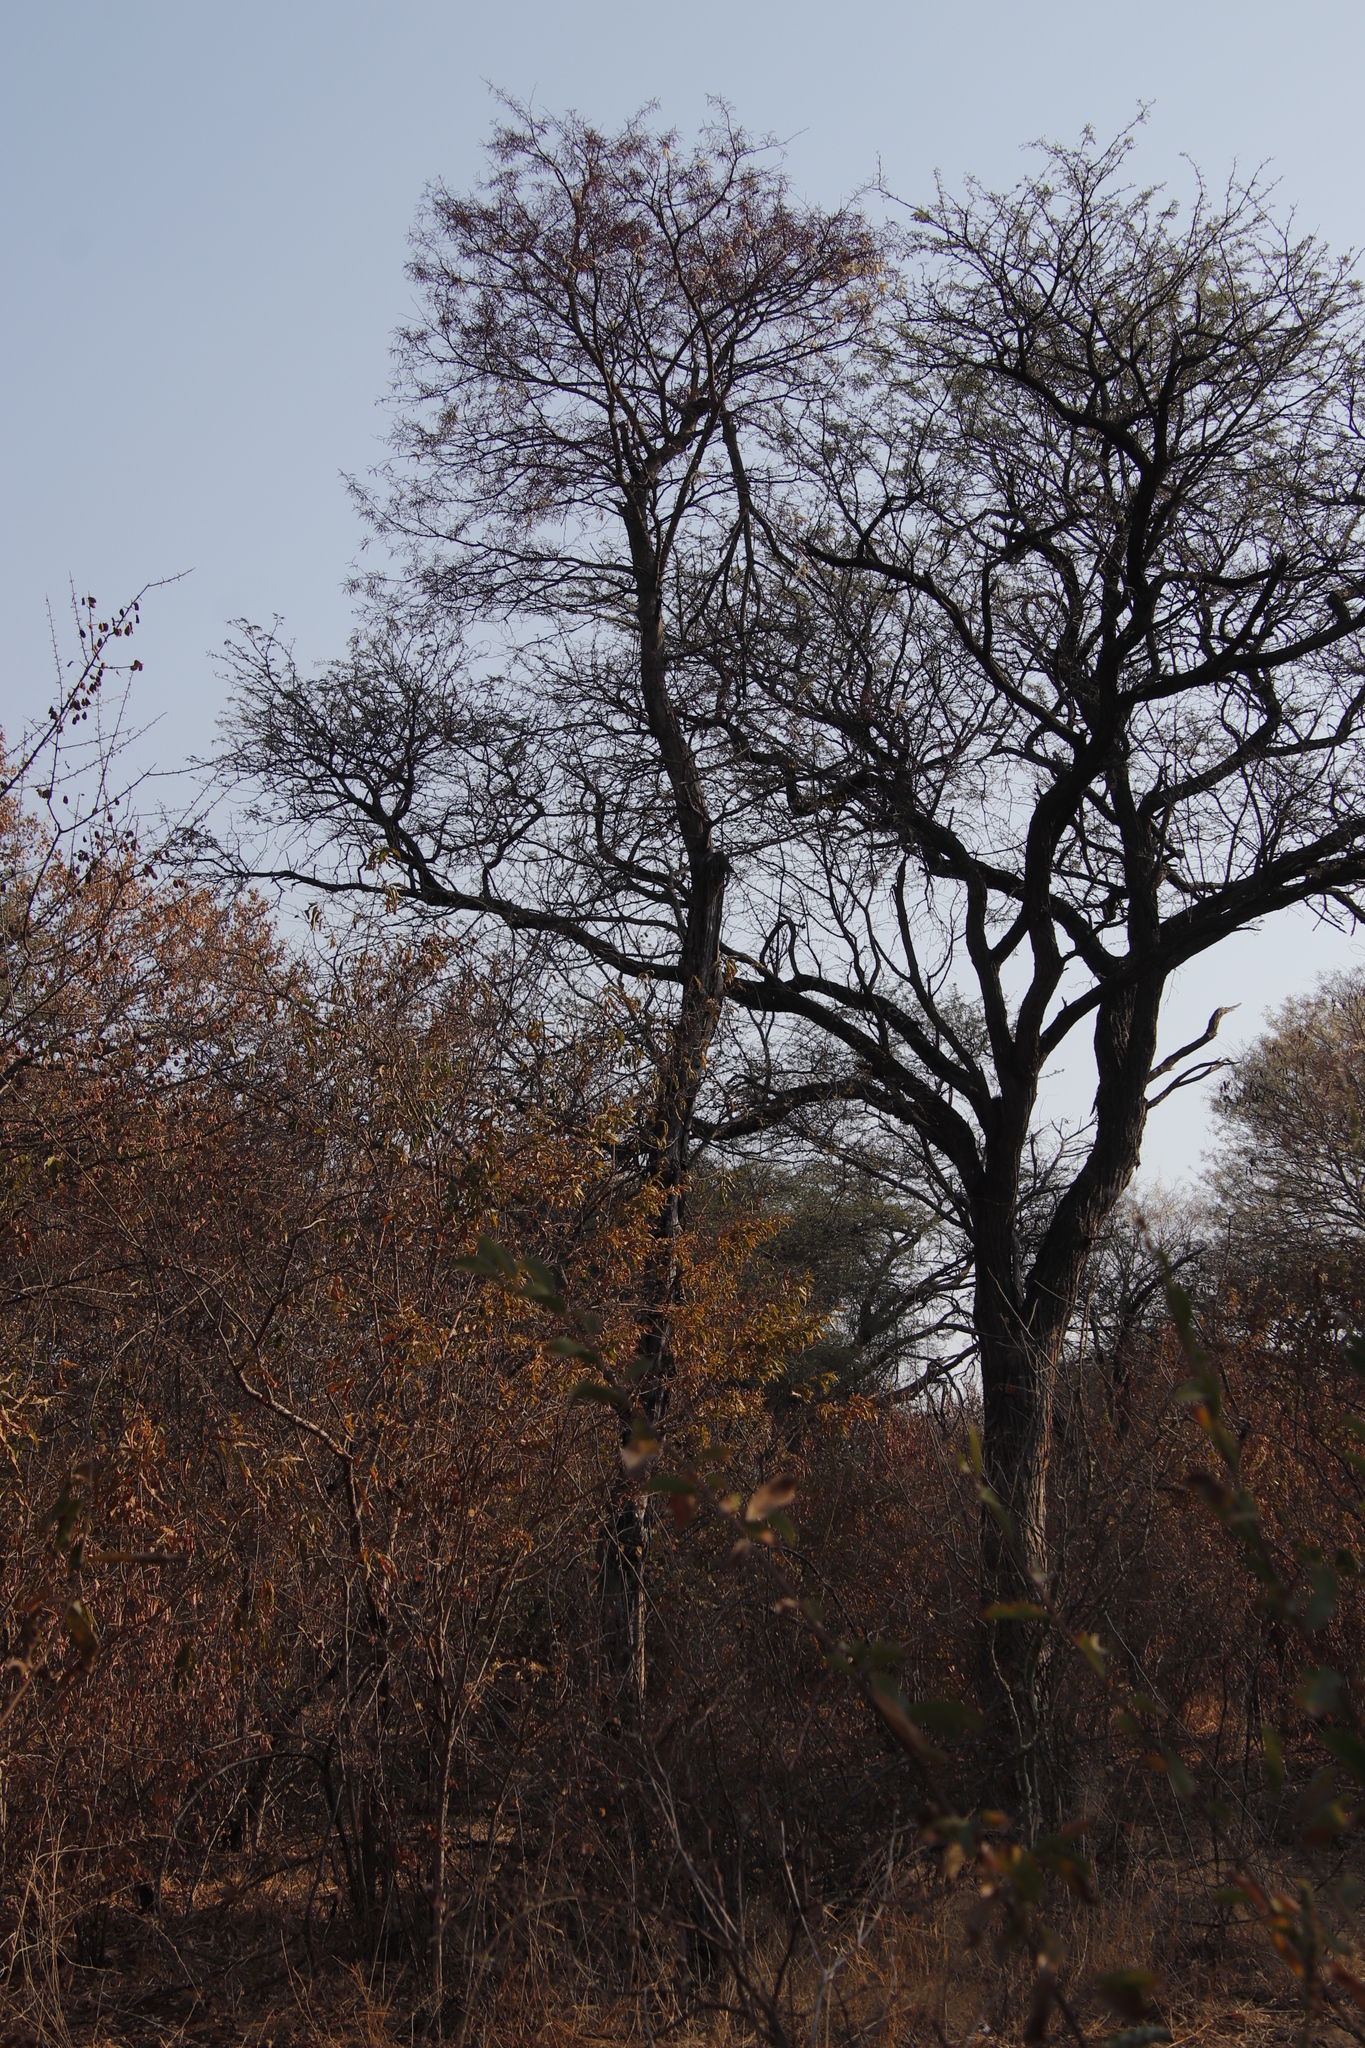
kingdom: Plantae
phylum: Tracheophyta
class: Magnoliopsida
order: Fabales
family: Fabaceae
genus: Senegalia
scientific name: Senegalia nigrescens
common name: Knobthorn
